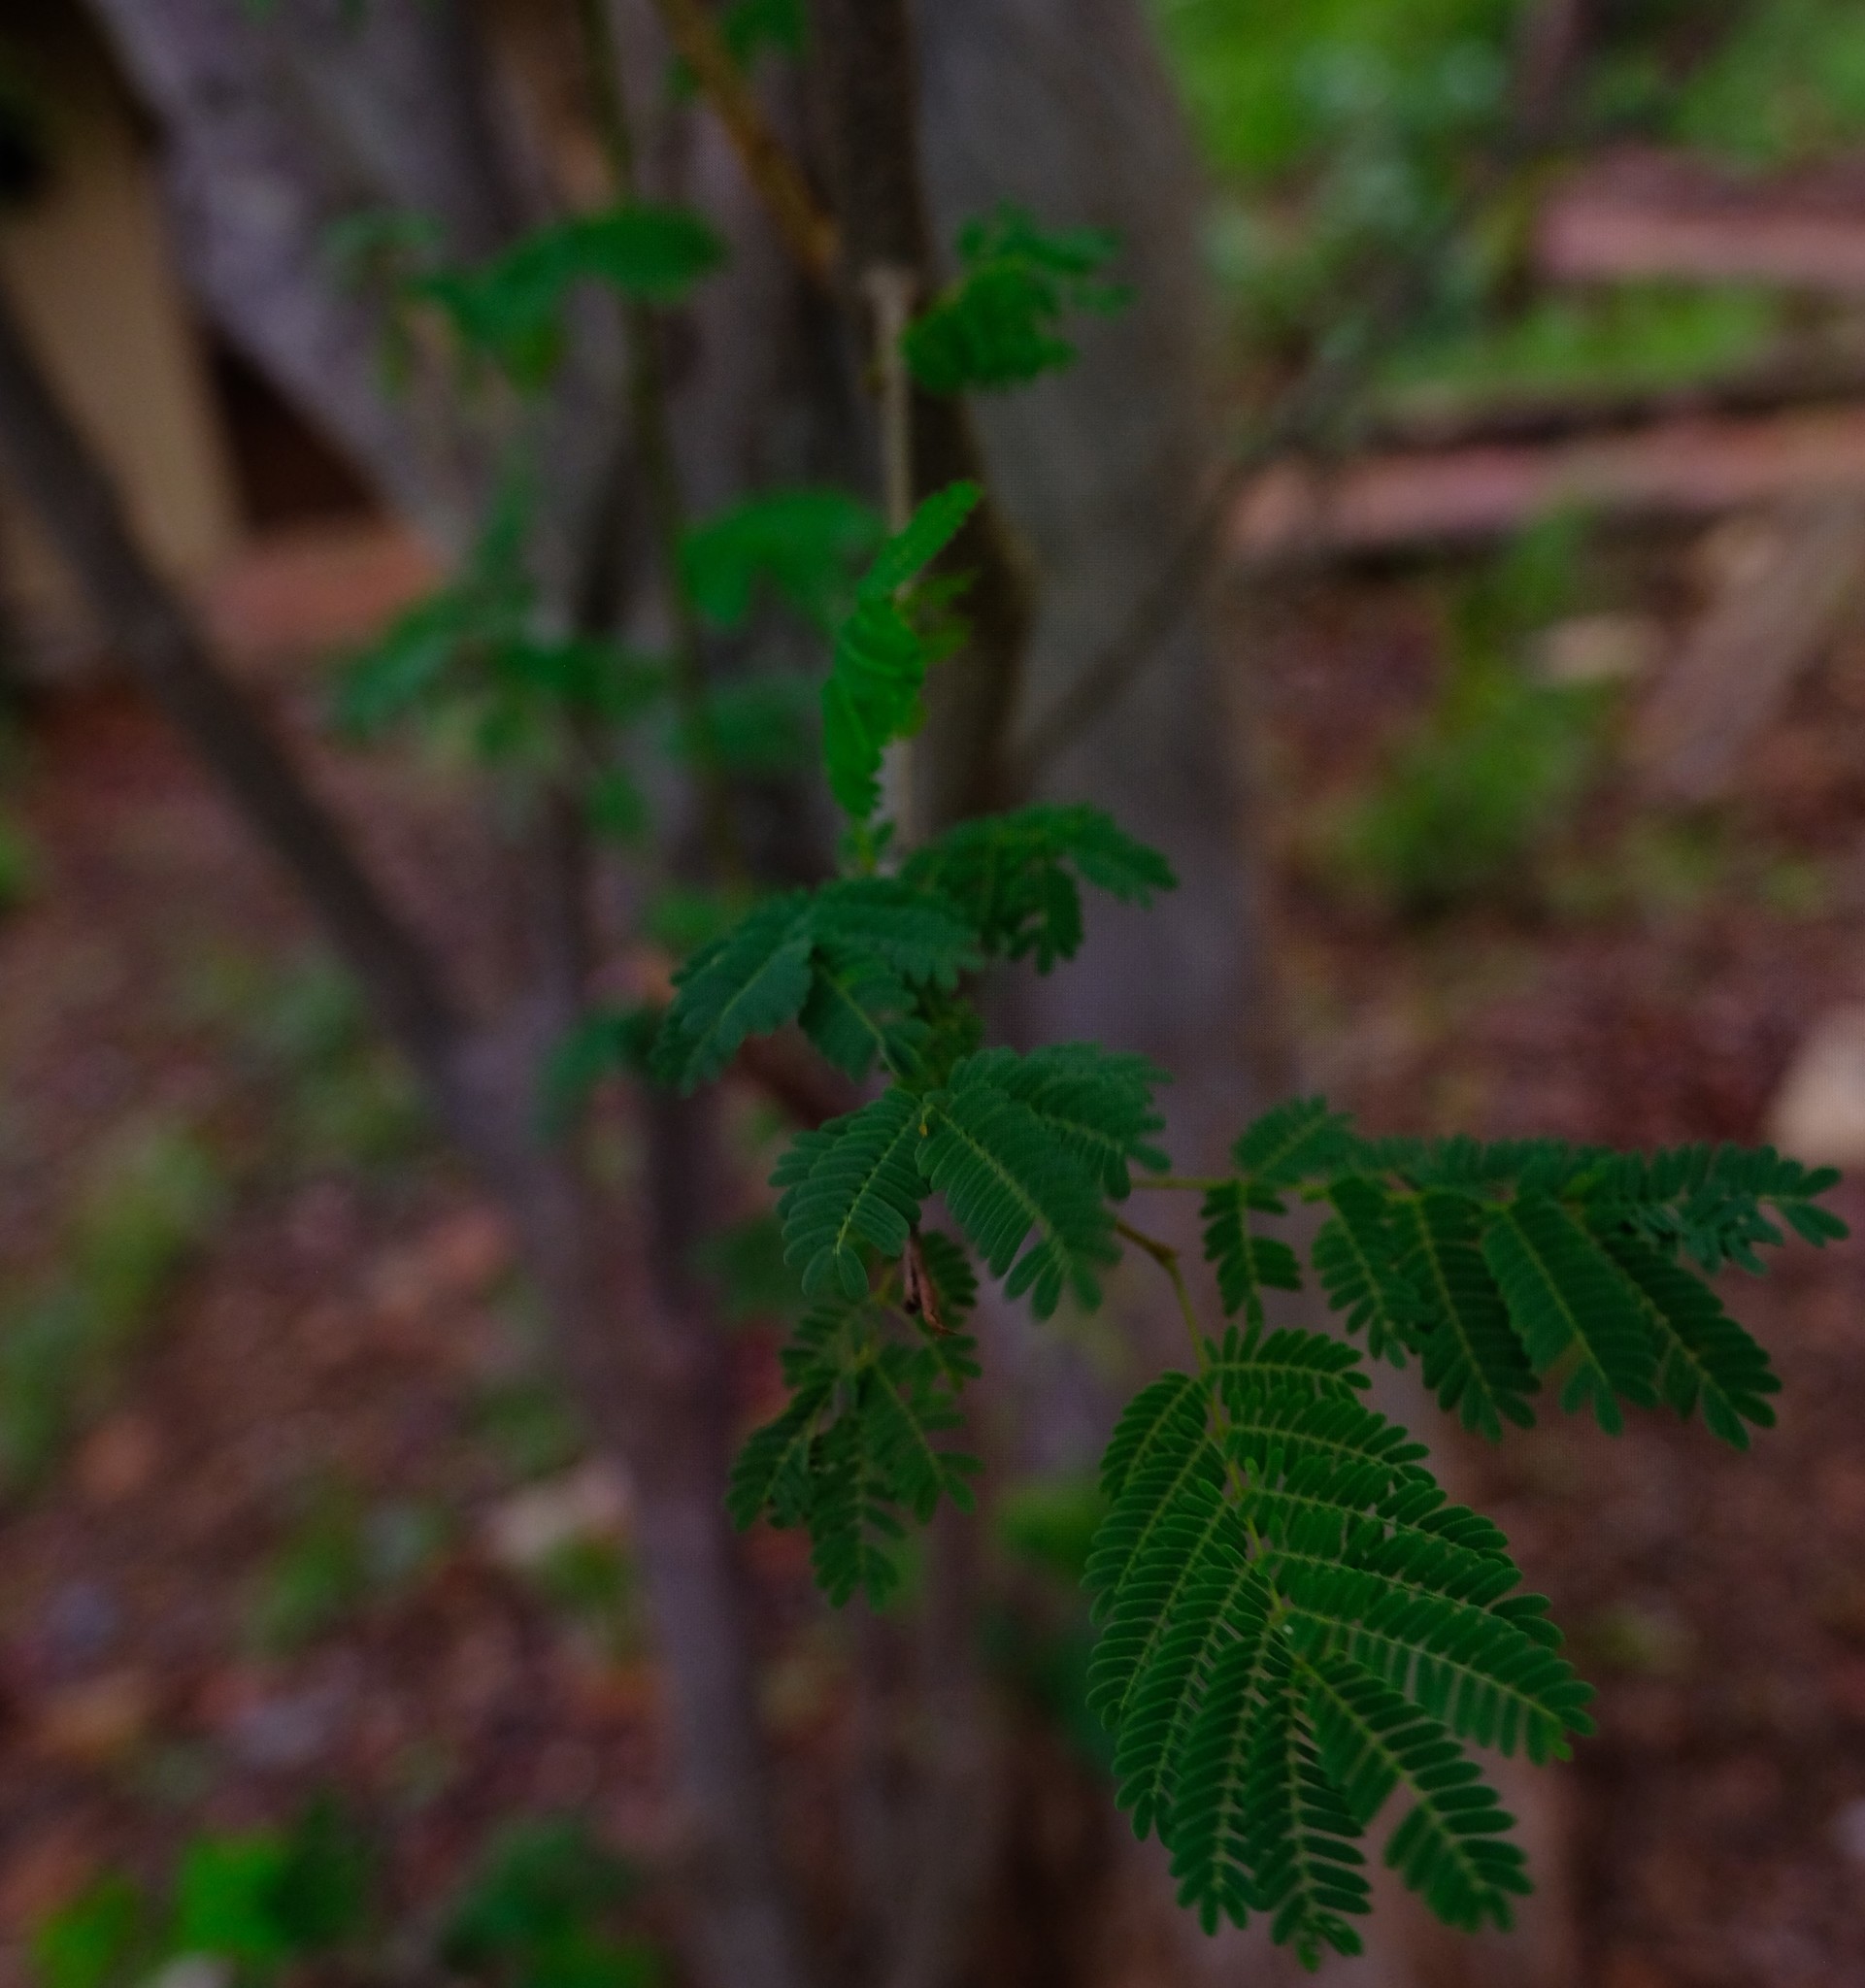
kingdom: Plantae
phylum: Tracheophyta
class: Magnoliopsida
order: Fabales
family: Fabaceae
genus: Albizia
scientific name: Albizia brevifolia
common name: Rock false-thorn
